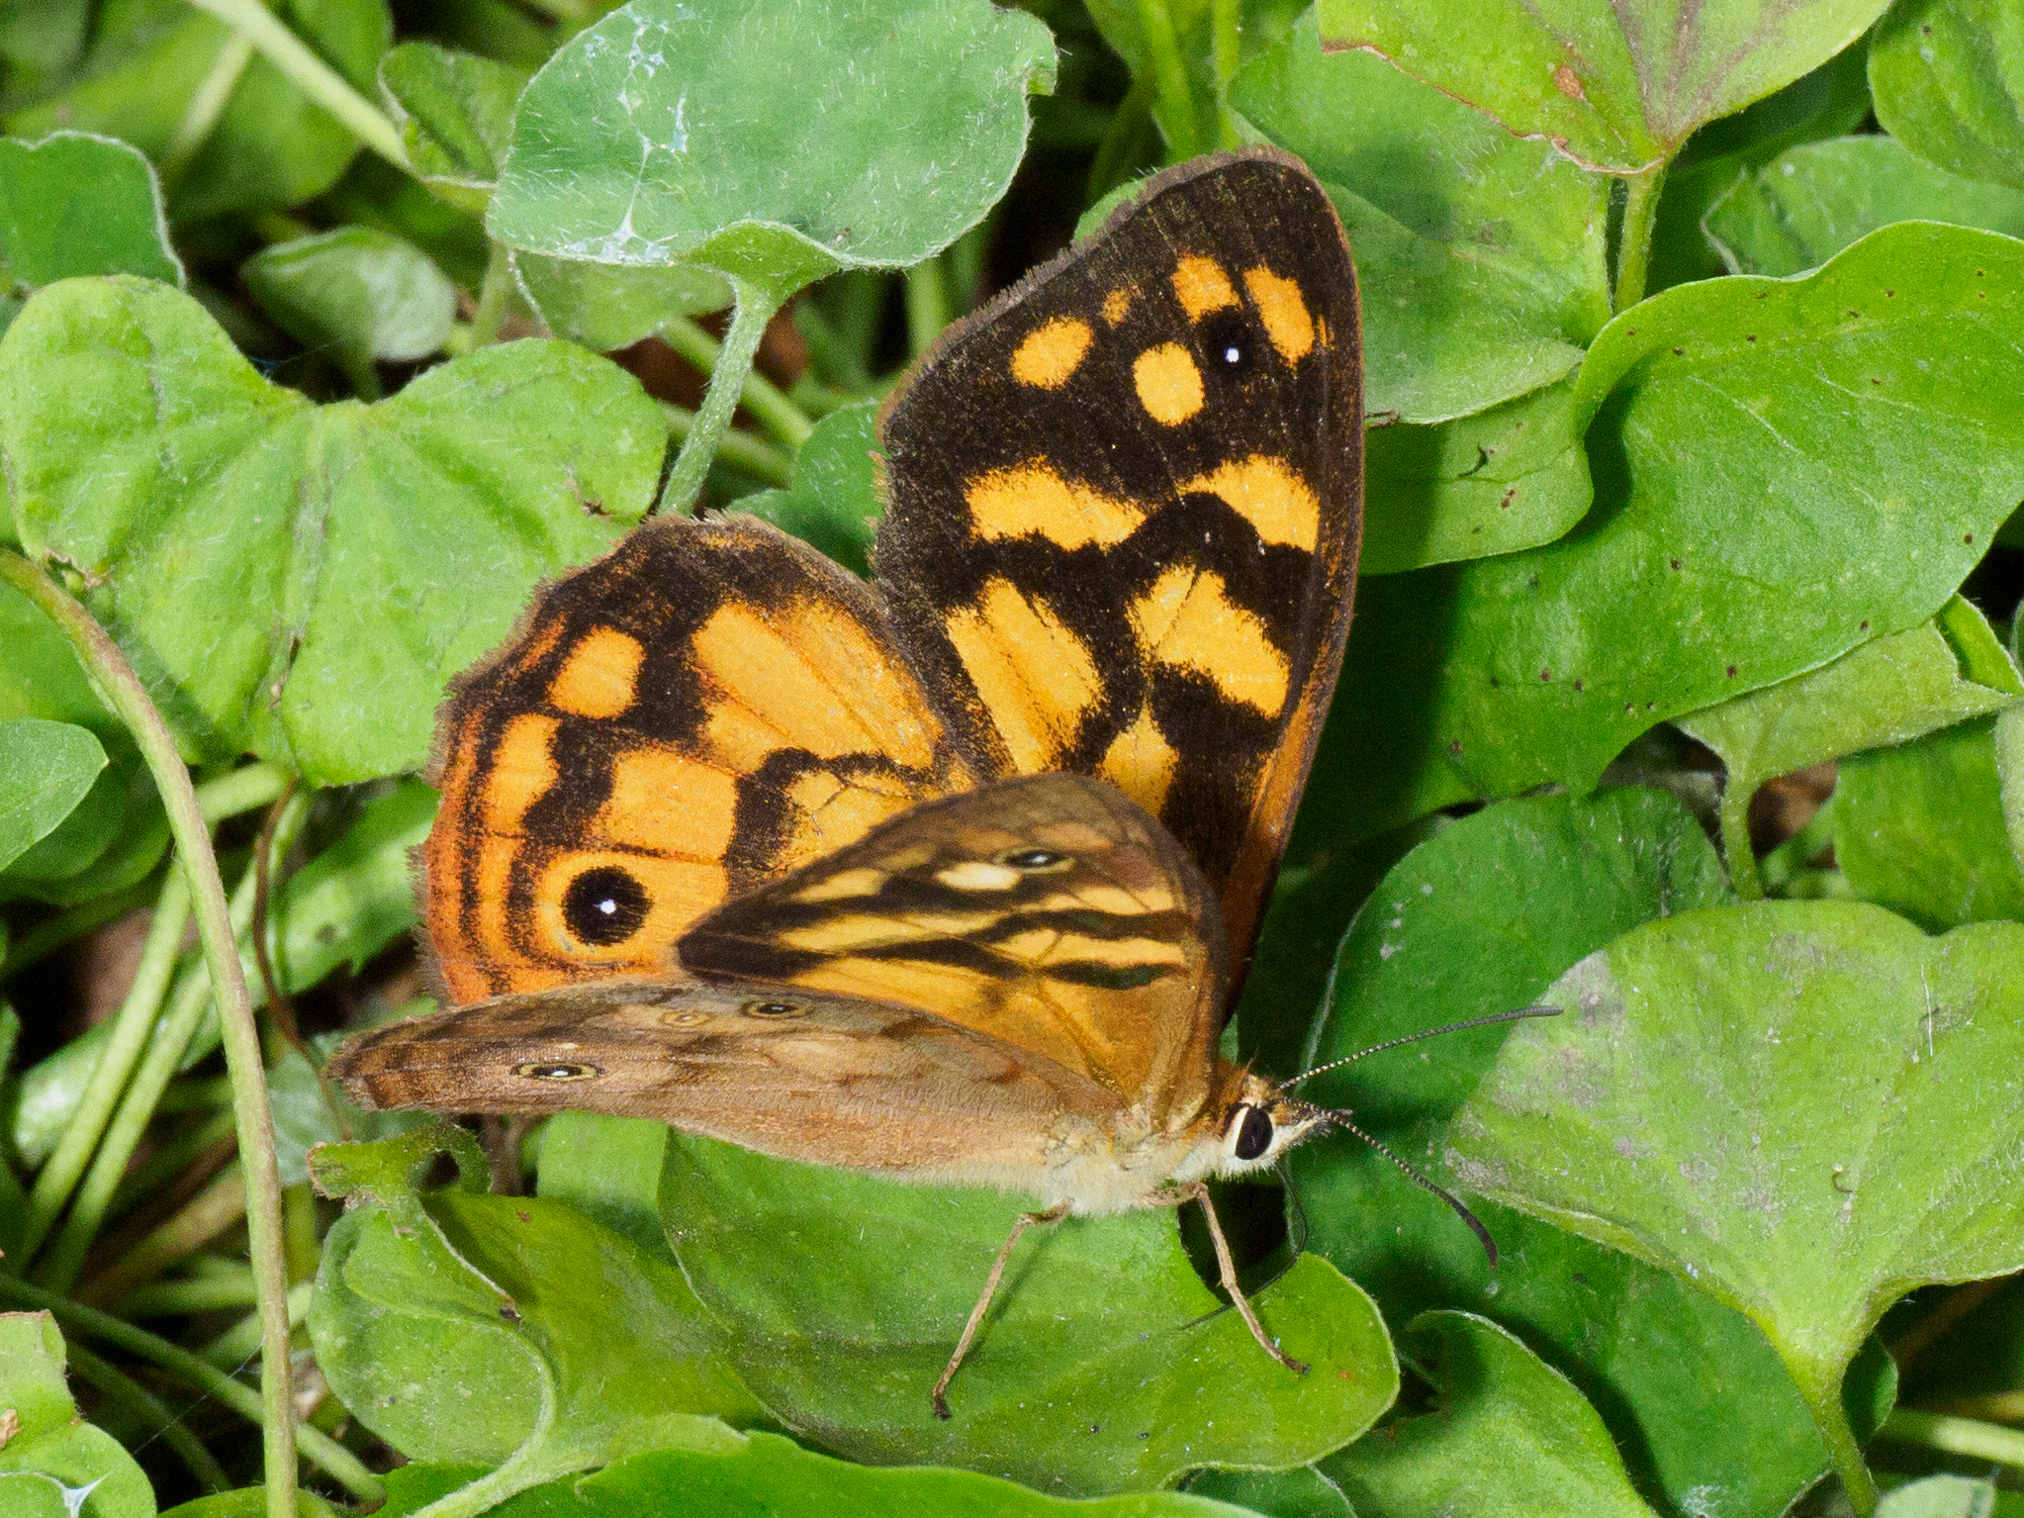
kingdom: Animalia
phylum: Arthropoda
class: Insecta
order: Lepidoptera
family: Nymphalidae
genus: Heteronympha
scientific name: Heteronympha paradelpha
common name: Spotted brown
